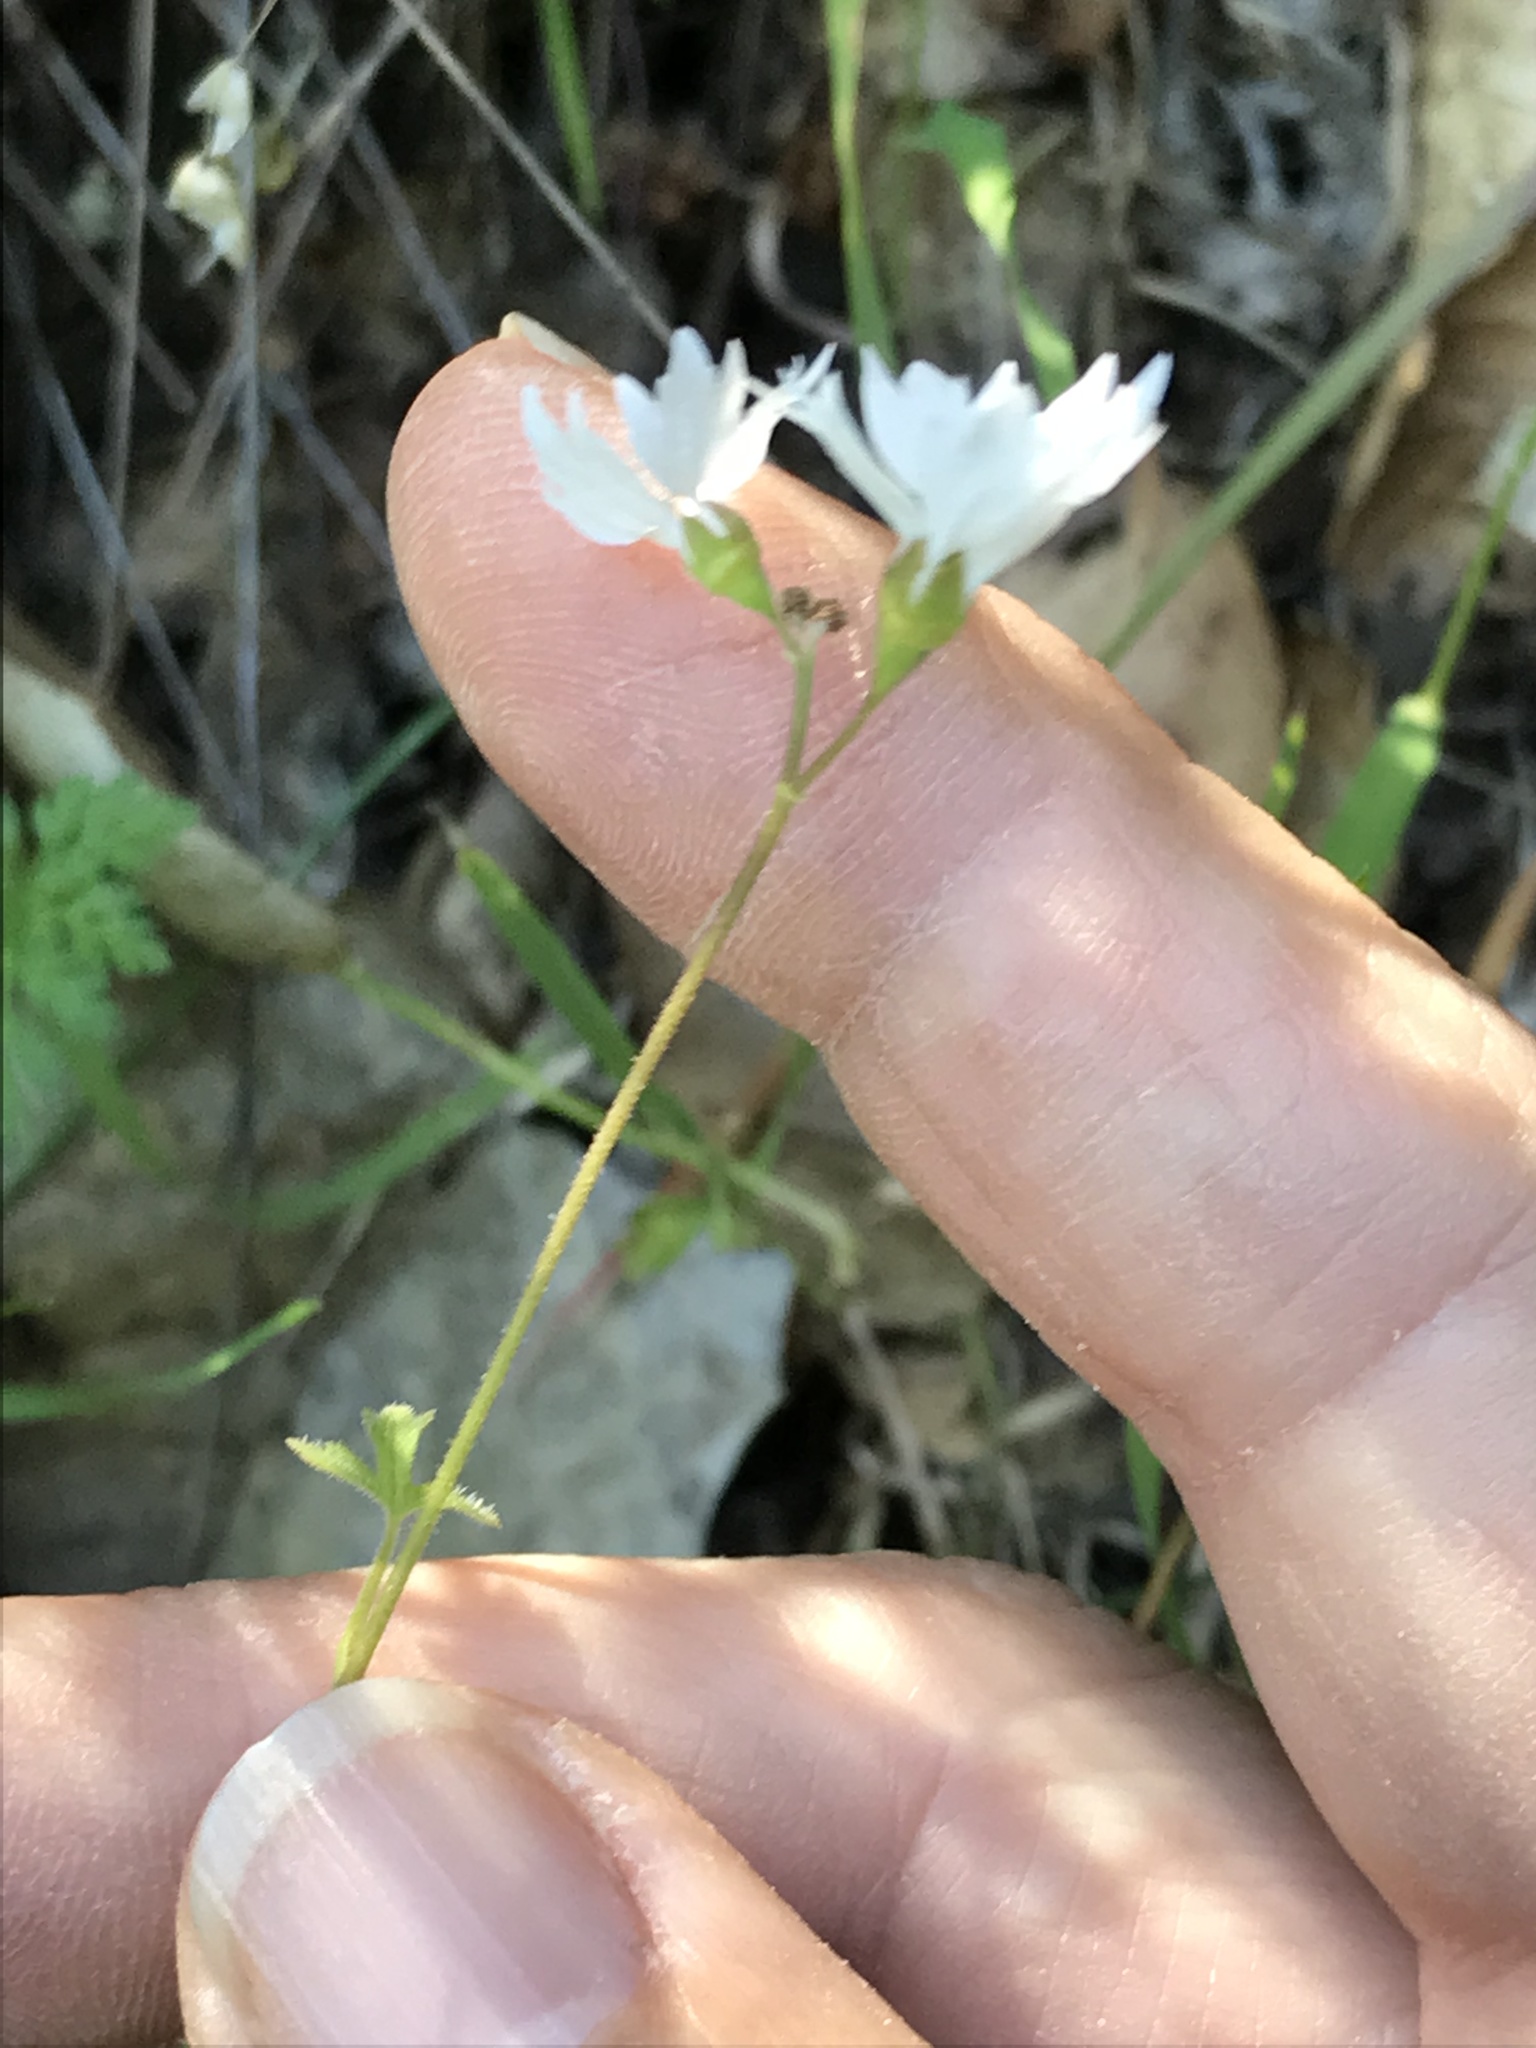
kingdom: Plantae
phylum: Tracheophyta
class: Magnoliopsida
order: Saxifragales
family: Saxifragaceae
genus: Lithophragma
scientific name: Lithophragma affine
